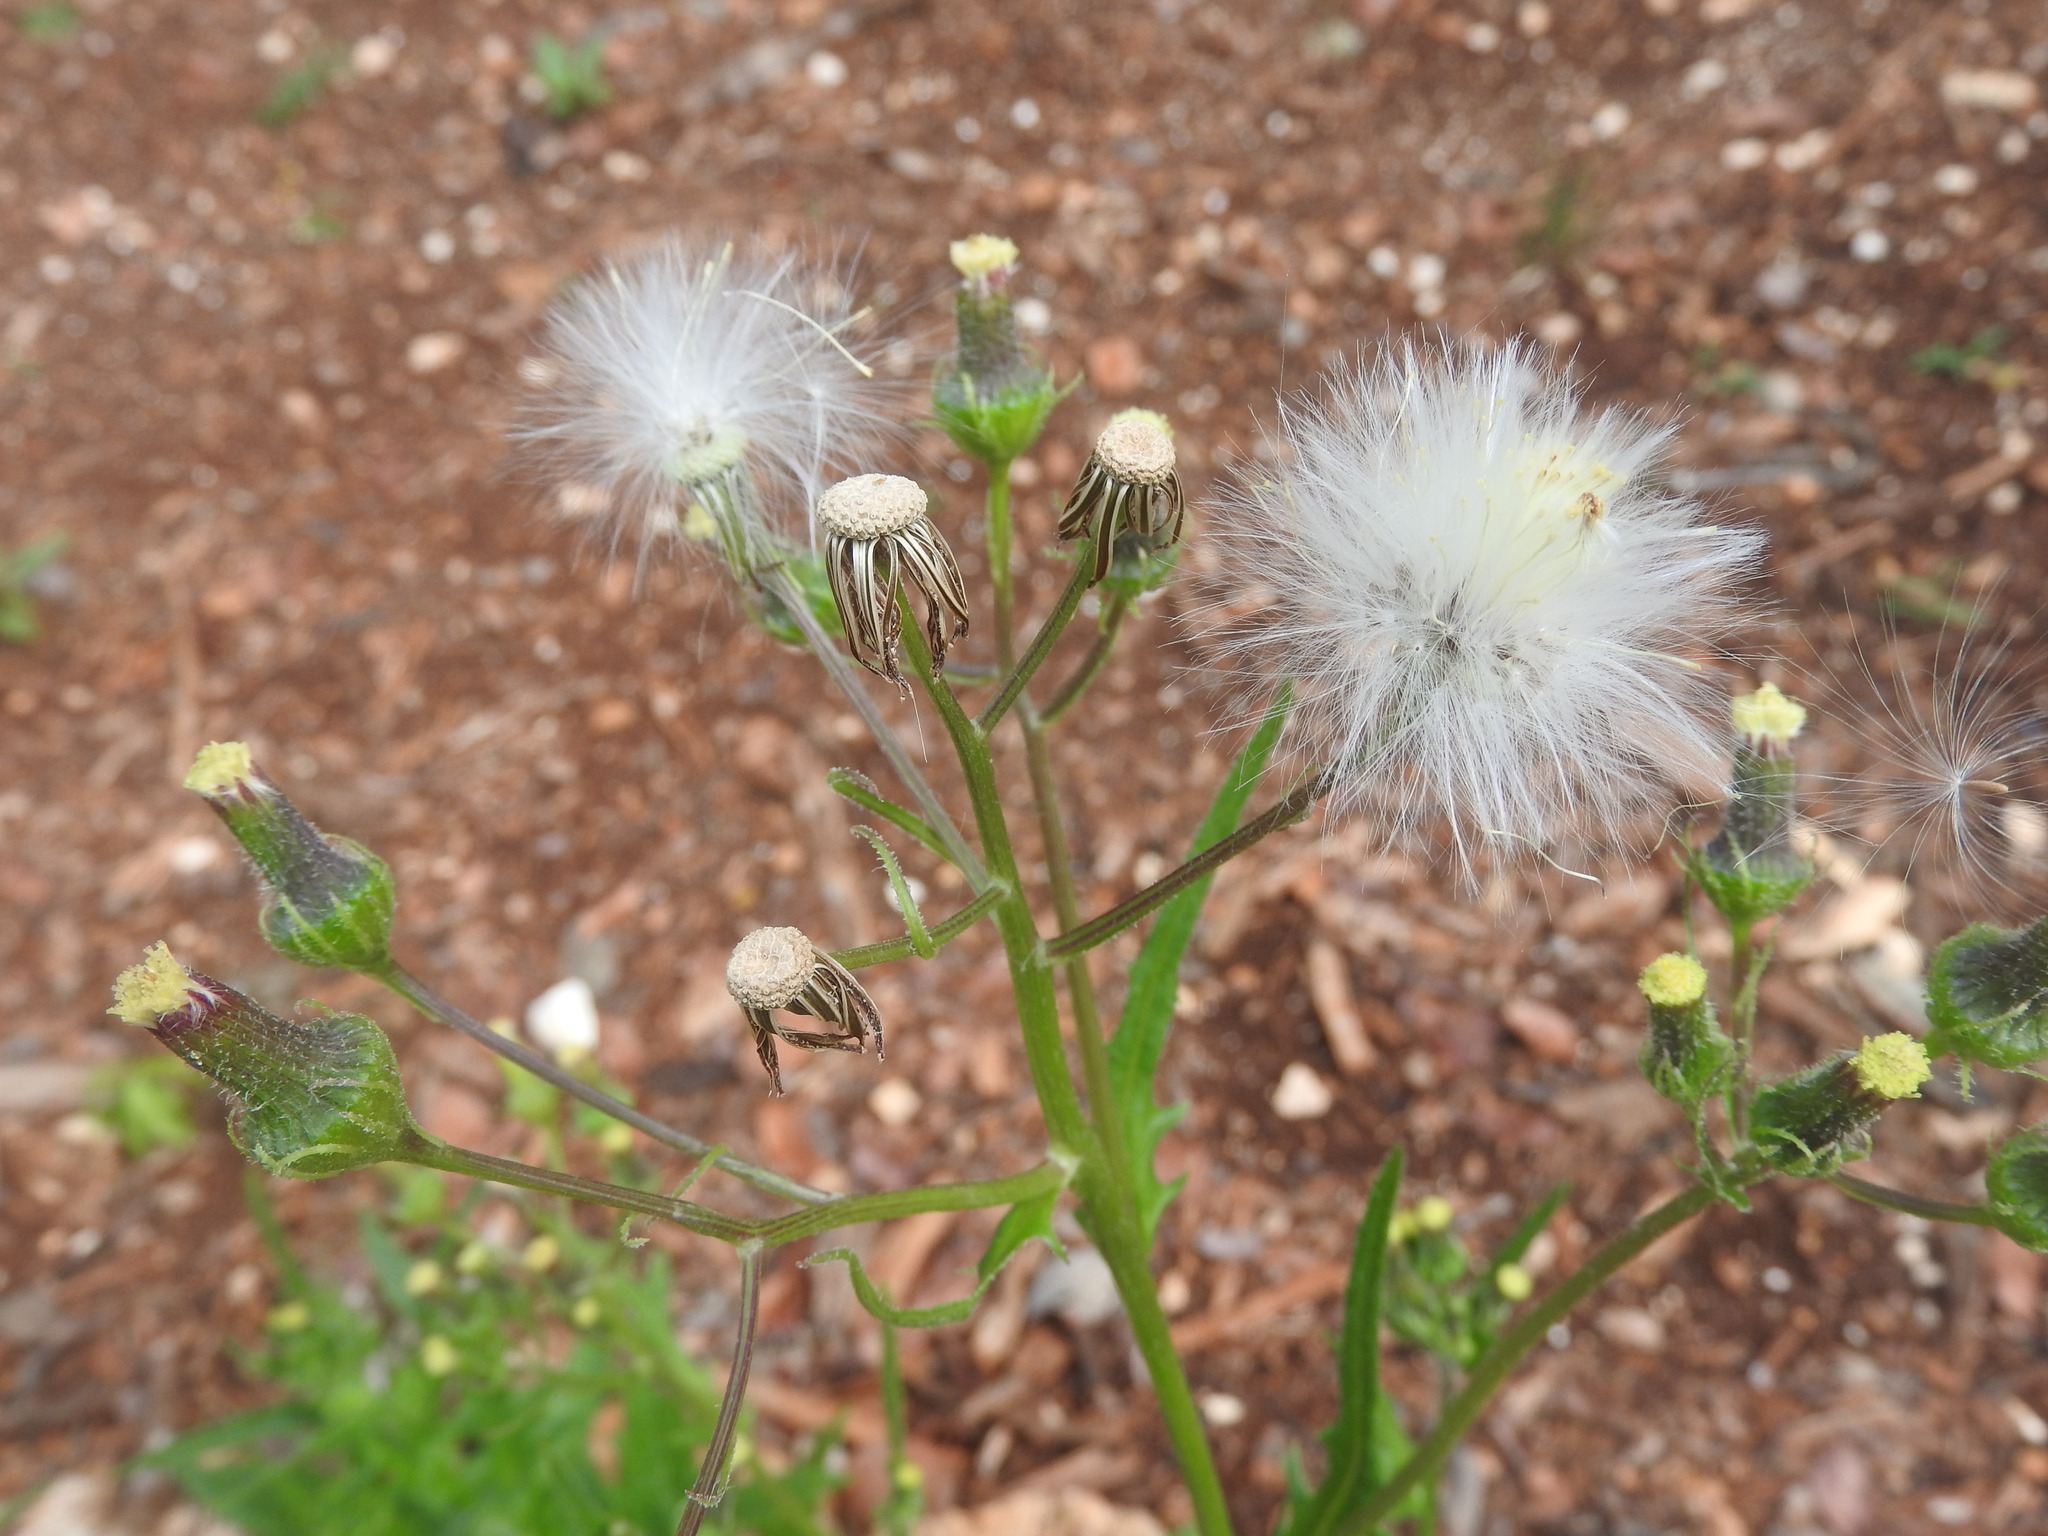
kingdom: Plantae
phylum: Tracheophyta
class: Magnoliopsida
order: Asterales
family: Asteraceae
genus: Erechtites
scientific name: Erechtites hieraciifolius
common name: American burnweed
